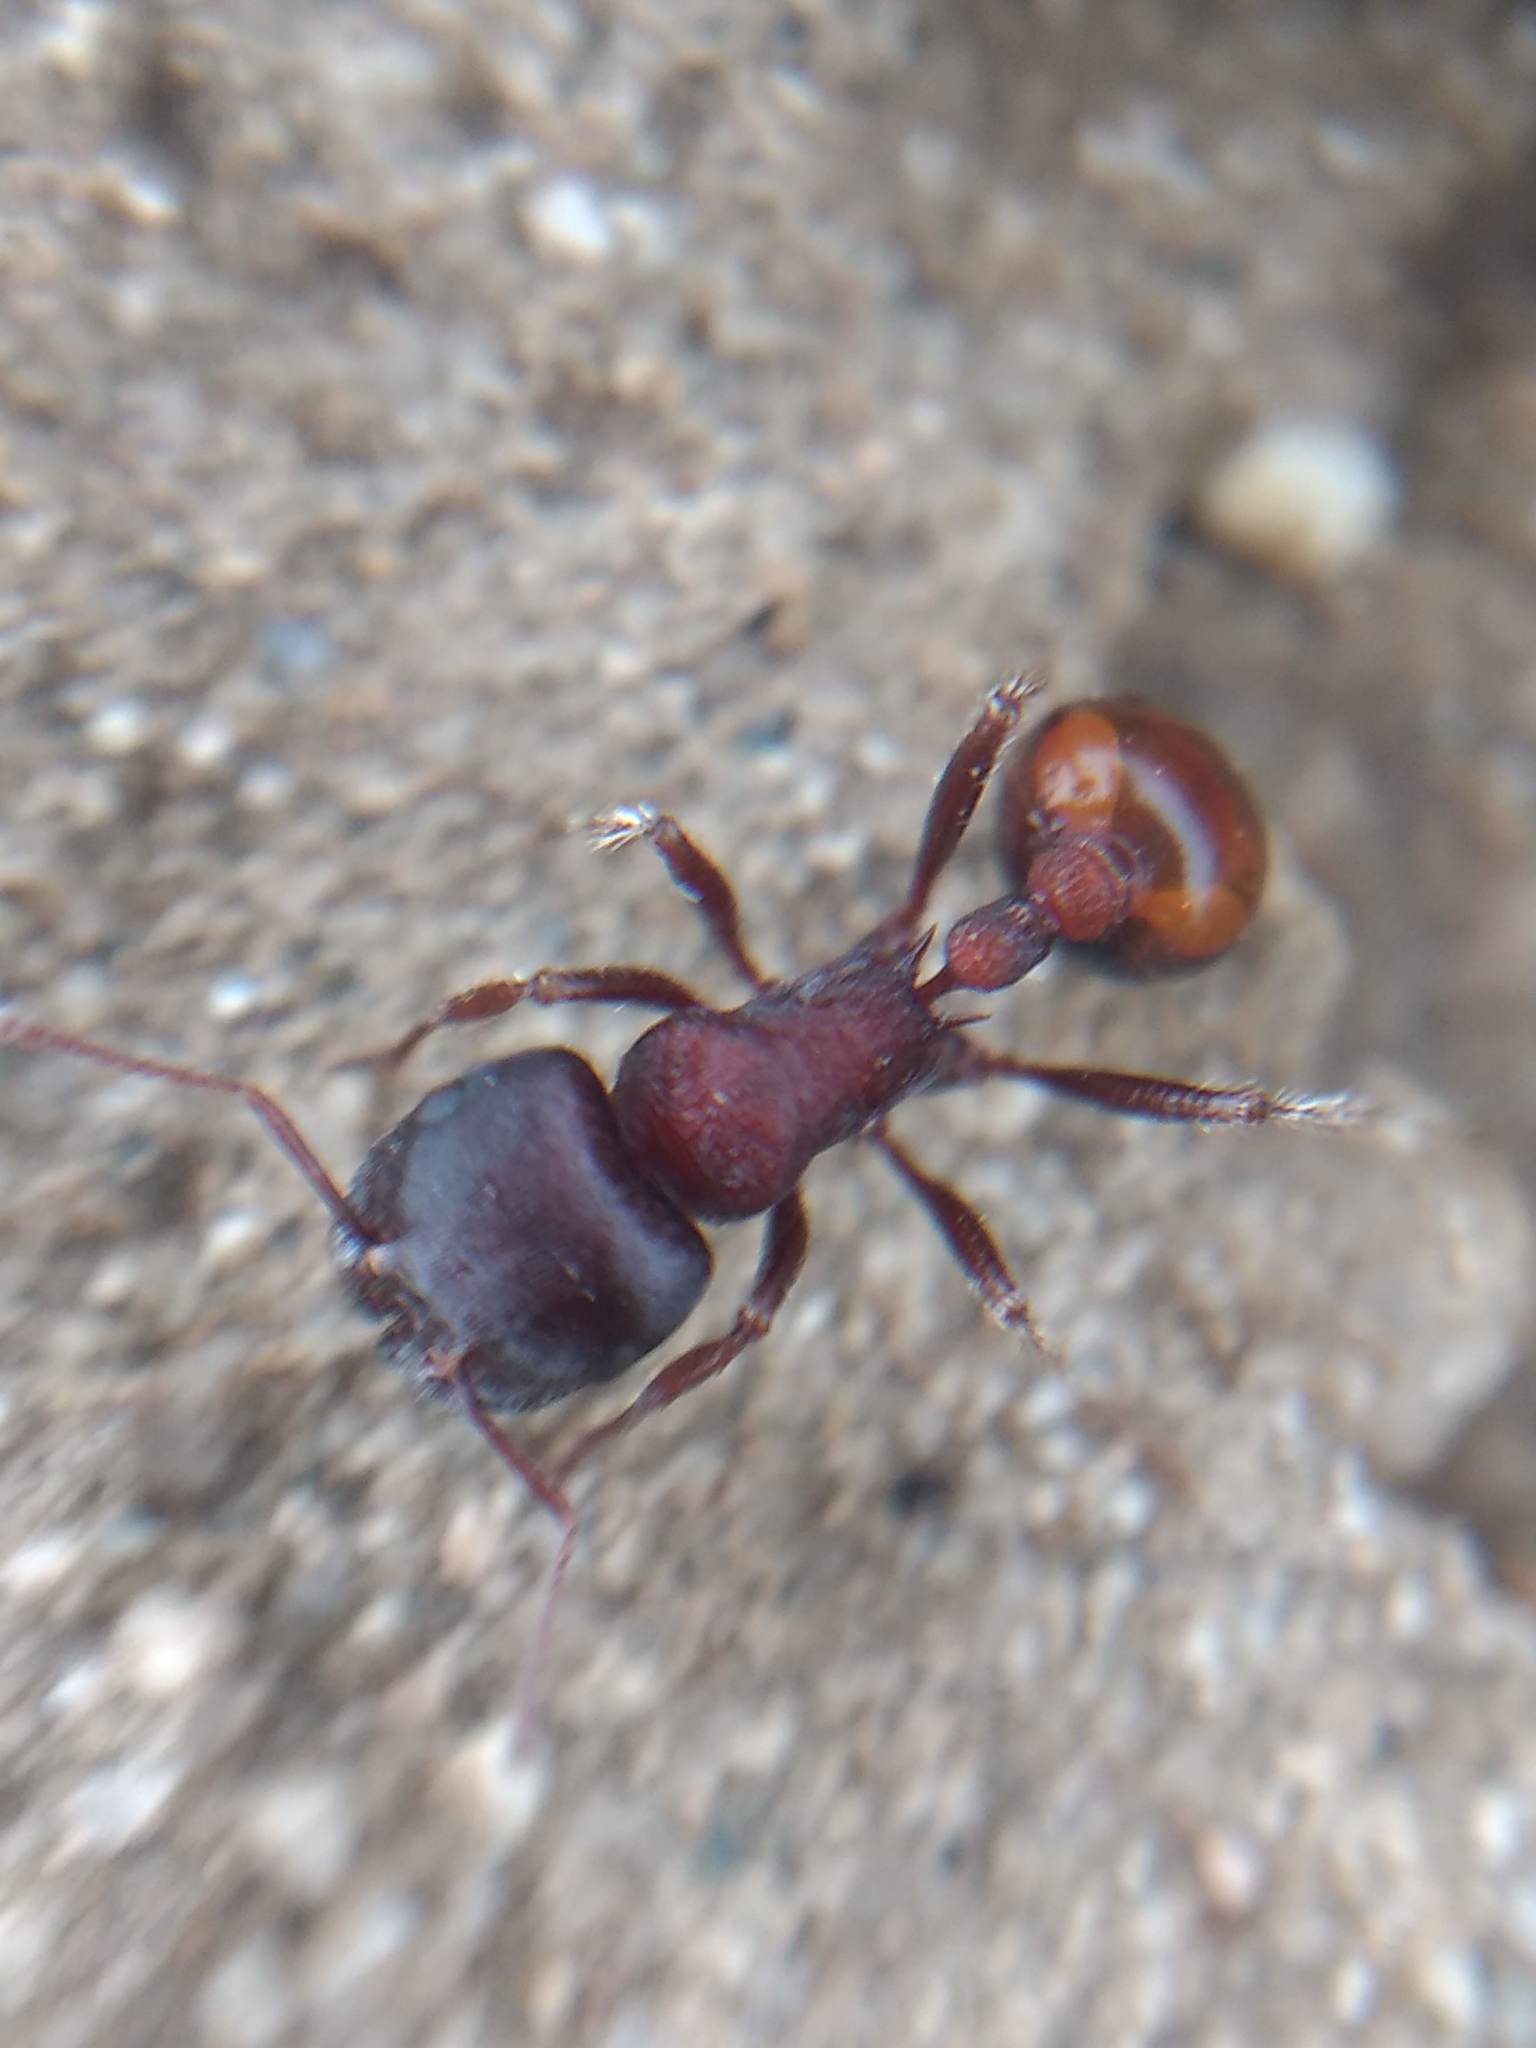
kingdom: Animalia
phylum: Arthropoda
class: Insecta
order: Hymenoptera
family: Formicidae
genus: Pogonomyrmex
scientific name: Pogonomyrmex rugosus
